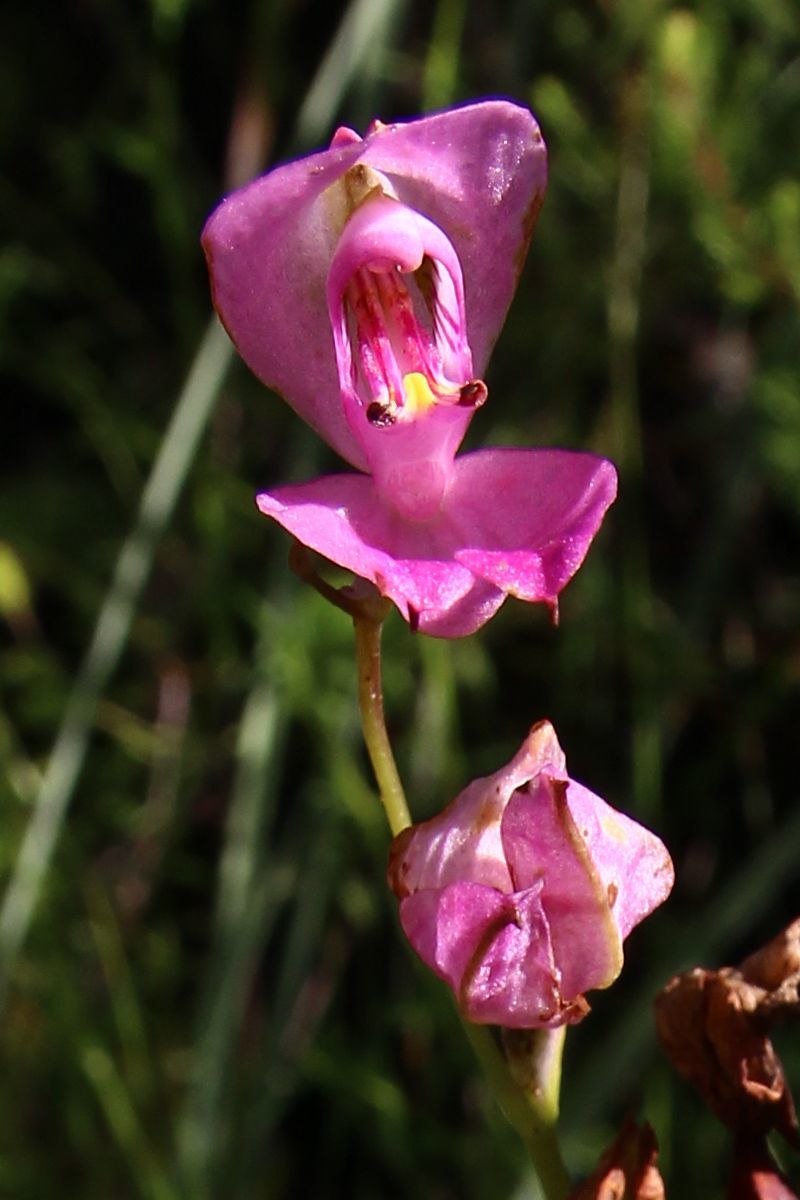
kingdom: Plantae
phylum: Tracheophyta
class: Liliopsida
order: Asparagales
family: Orchidaceae
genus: Disa
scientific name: Disa venosa
